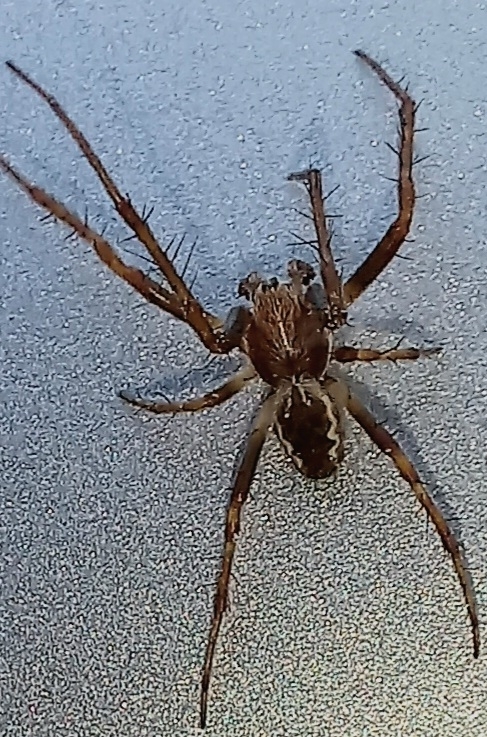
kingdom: Animalia
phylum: Arthropoda
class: Arachnida
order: Araneae
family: Araneidae
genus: Salsa
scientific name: Salsa fuliginata
